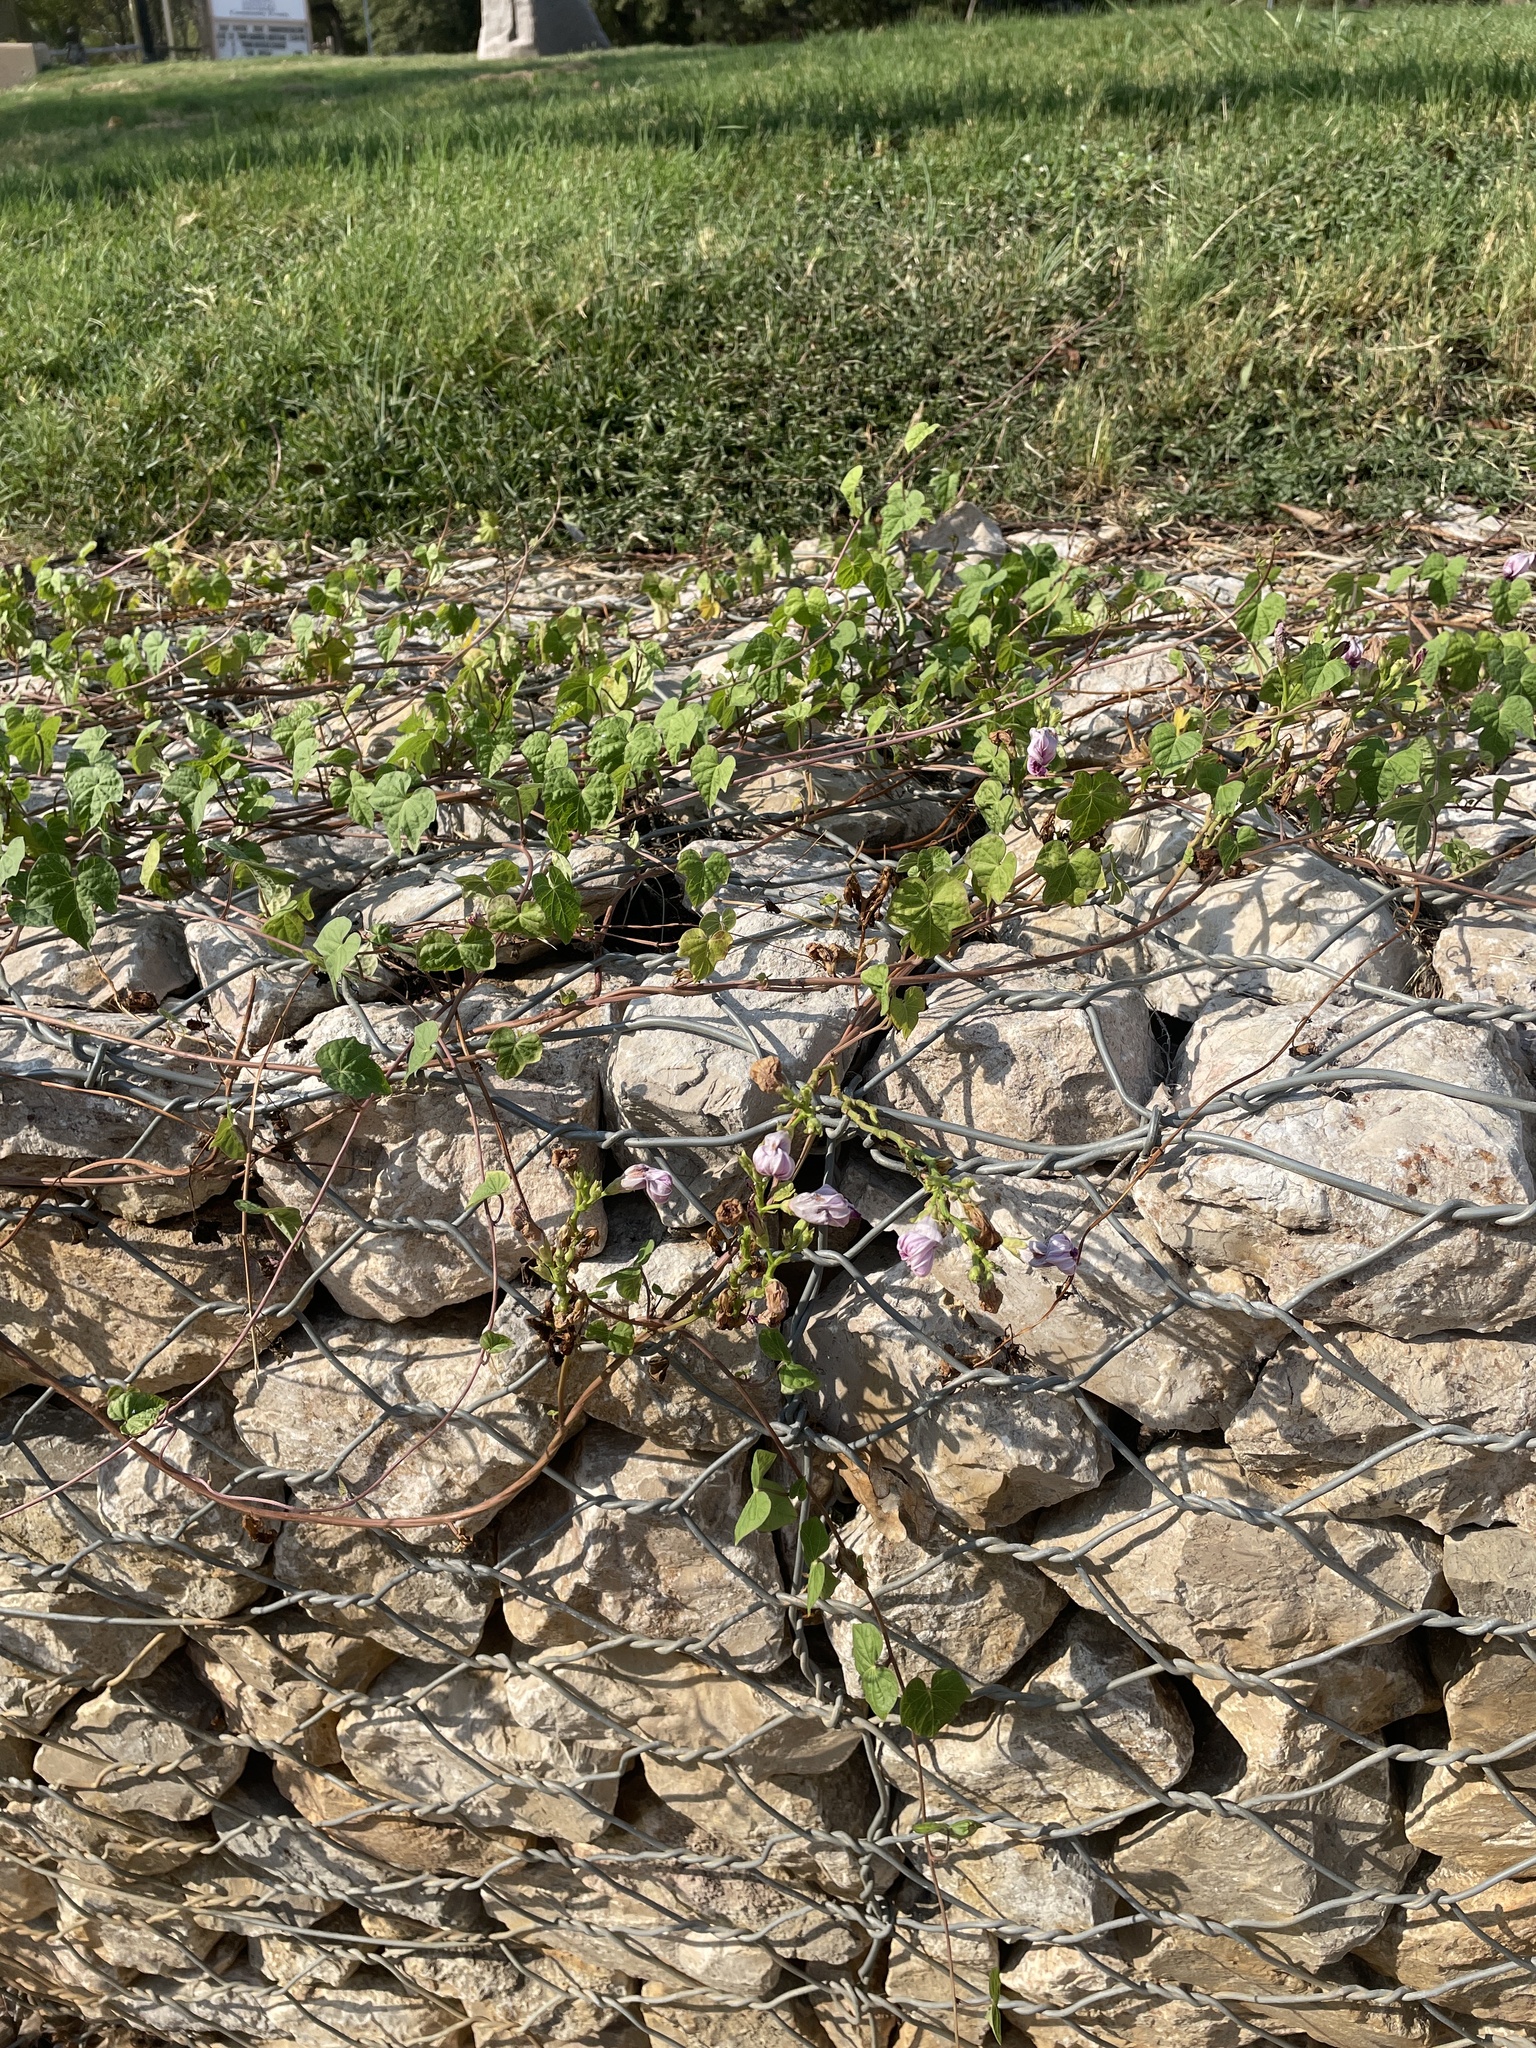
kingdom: Plantae
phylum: Tracheophyta
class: Magnoliopsida
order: Solanales
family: Convolvulaceae
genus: Ipomoea
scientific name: Ipomoea cordatotriloba
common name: Cotton morning glory
